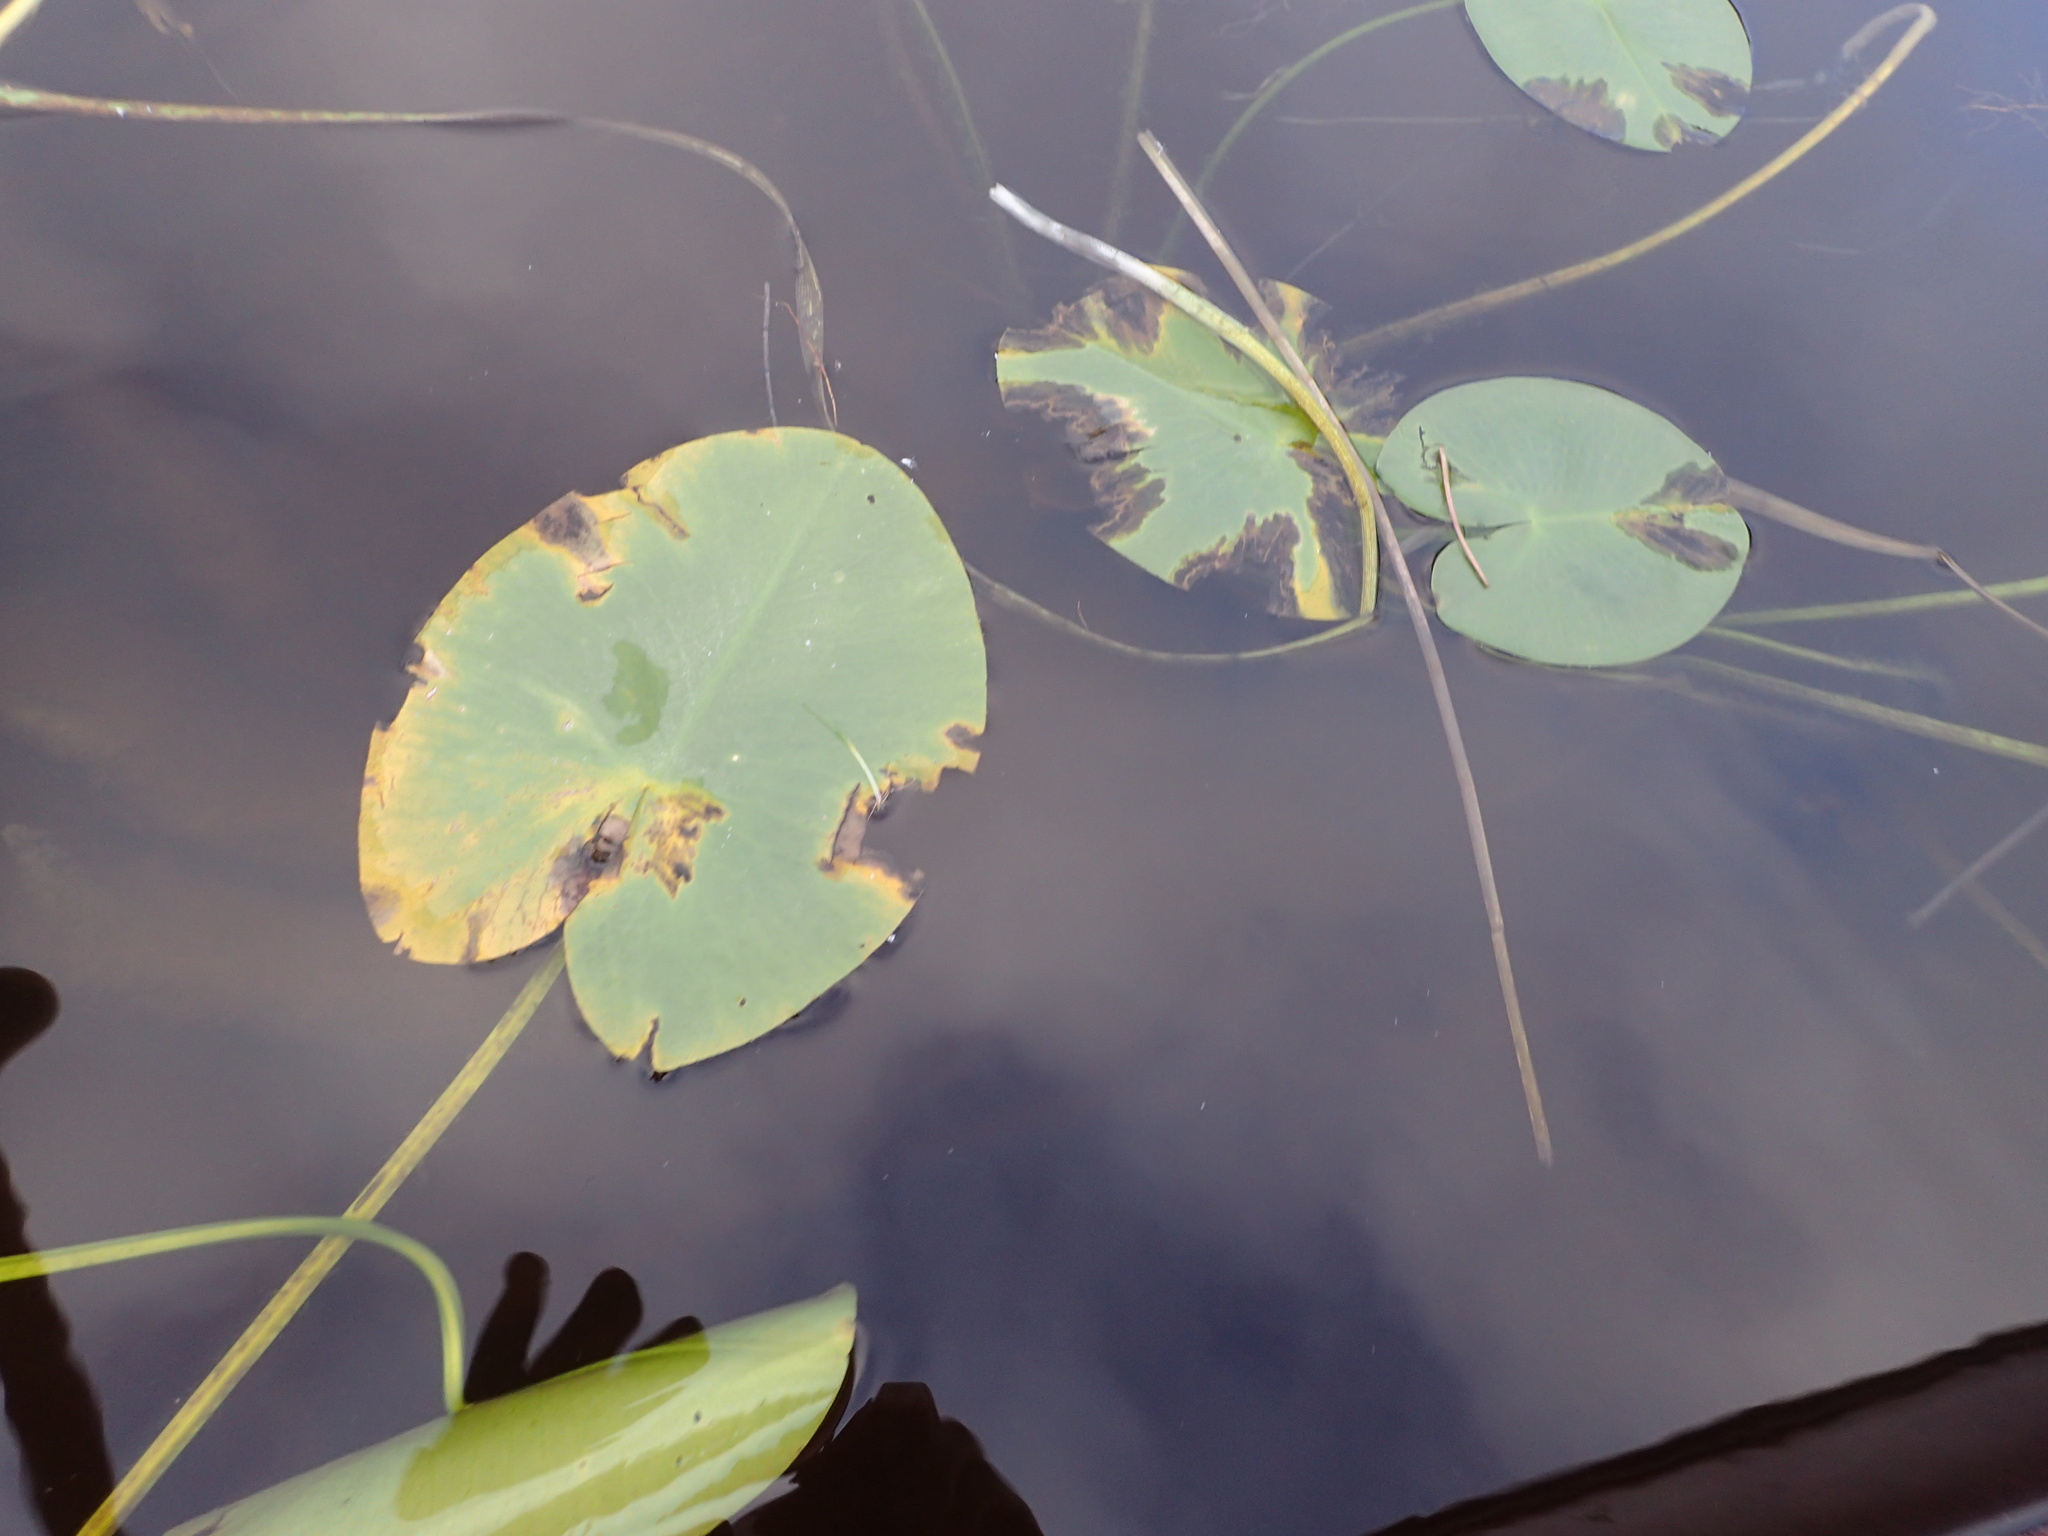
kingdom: Plantae
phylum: Tracheophyta
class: Magnoliopsida
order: Nymphaeales
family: Nymphaeaceae
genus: Nuphar
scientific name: Nuphar variegata
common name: Beaver-root
